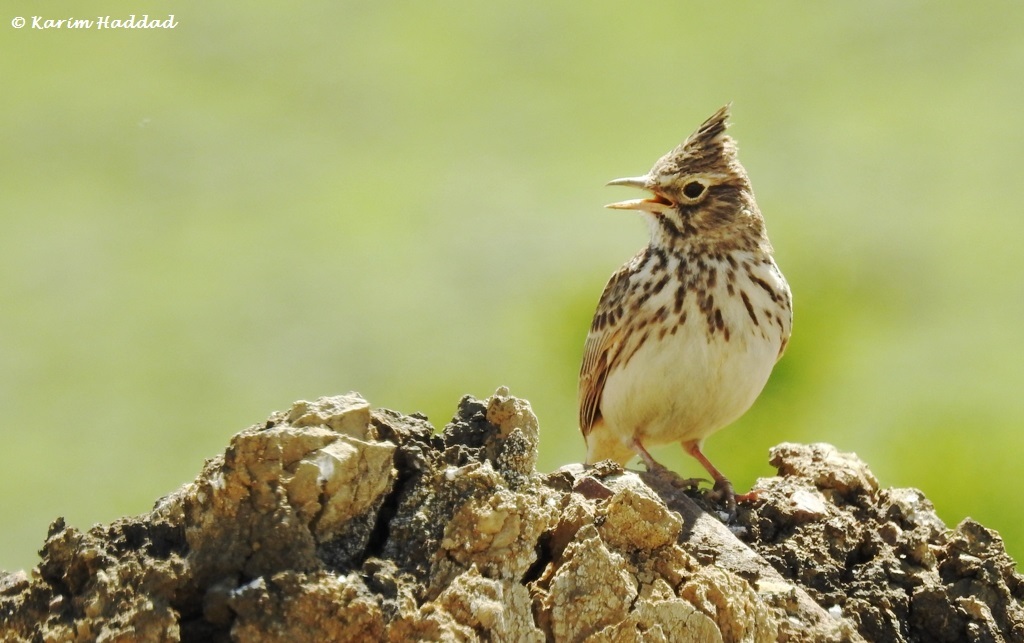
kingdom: Animalia
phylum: Chordata
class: Aves
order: Passeriformes
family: Alaudidae
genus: Galerida
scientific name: Galerida theklae
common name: Thekla lark
